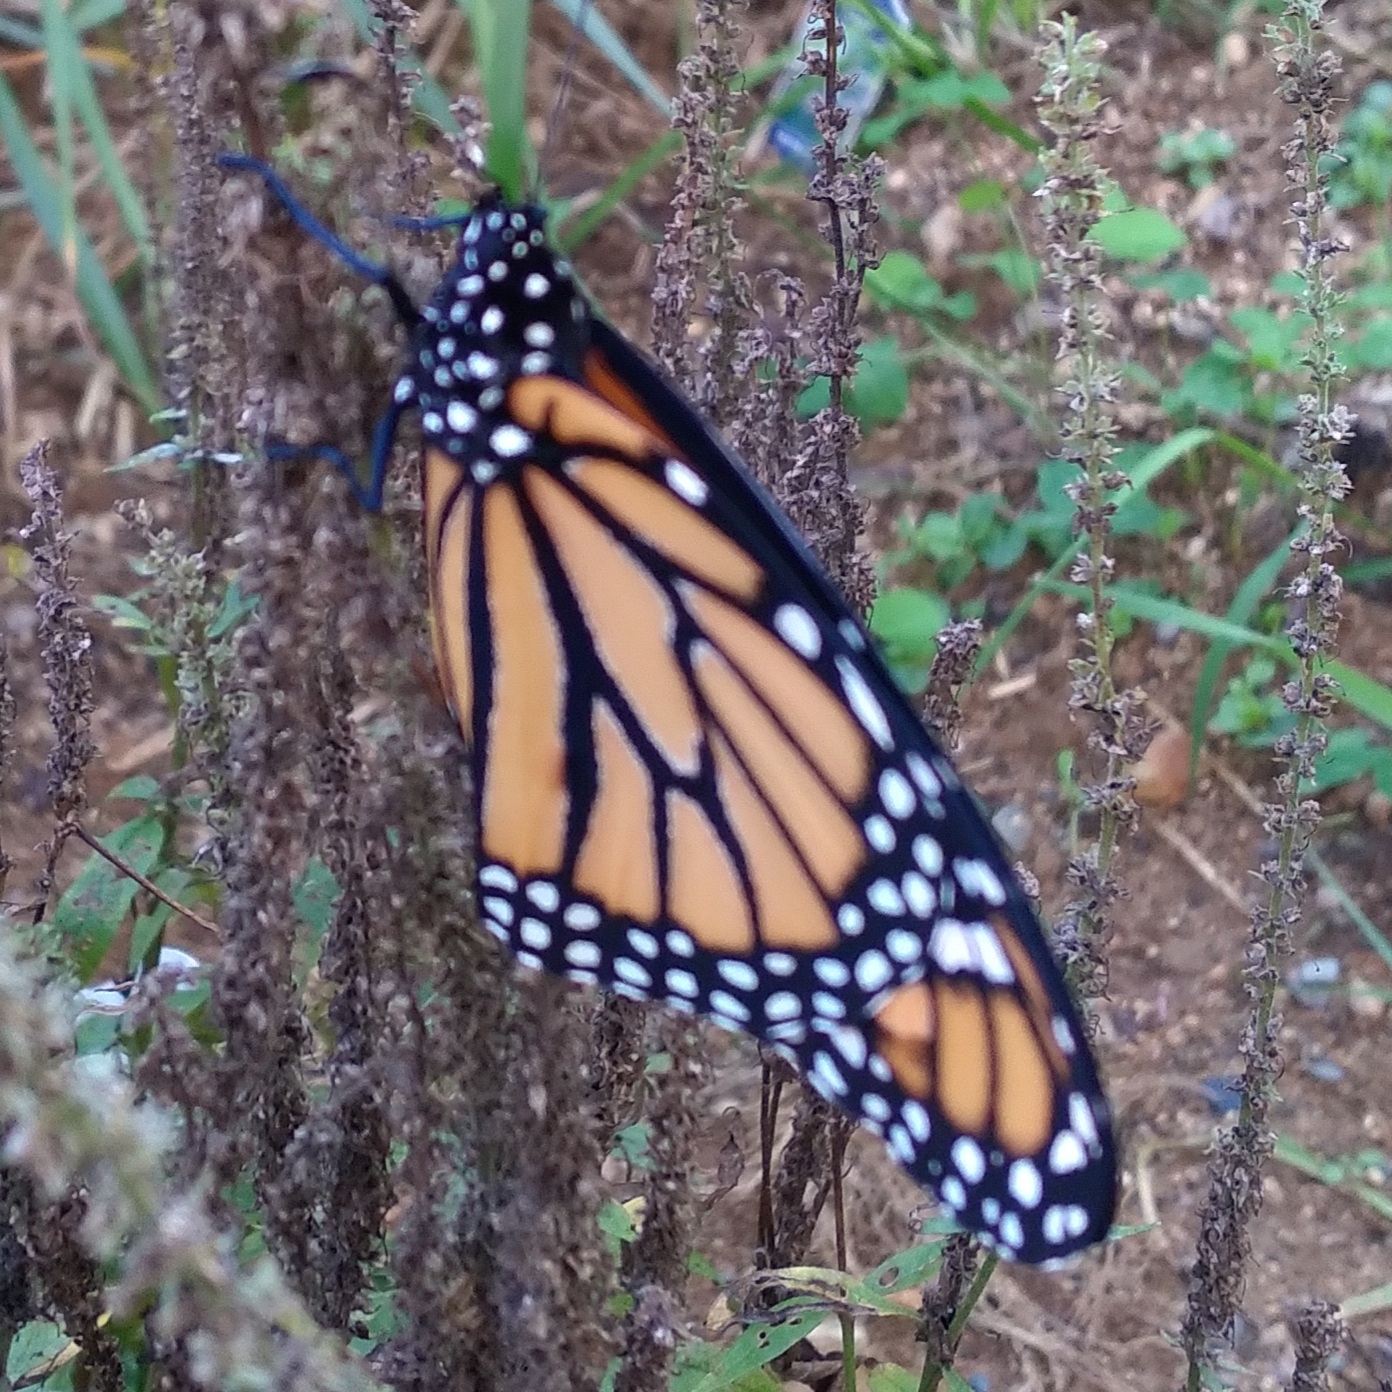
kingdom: Animalia
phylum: Arthropoda
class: Insecta
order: Lepidoptera
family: Nymphalidae
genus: Danaus
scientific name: Danaus plexippus
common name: Monarch
